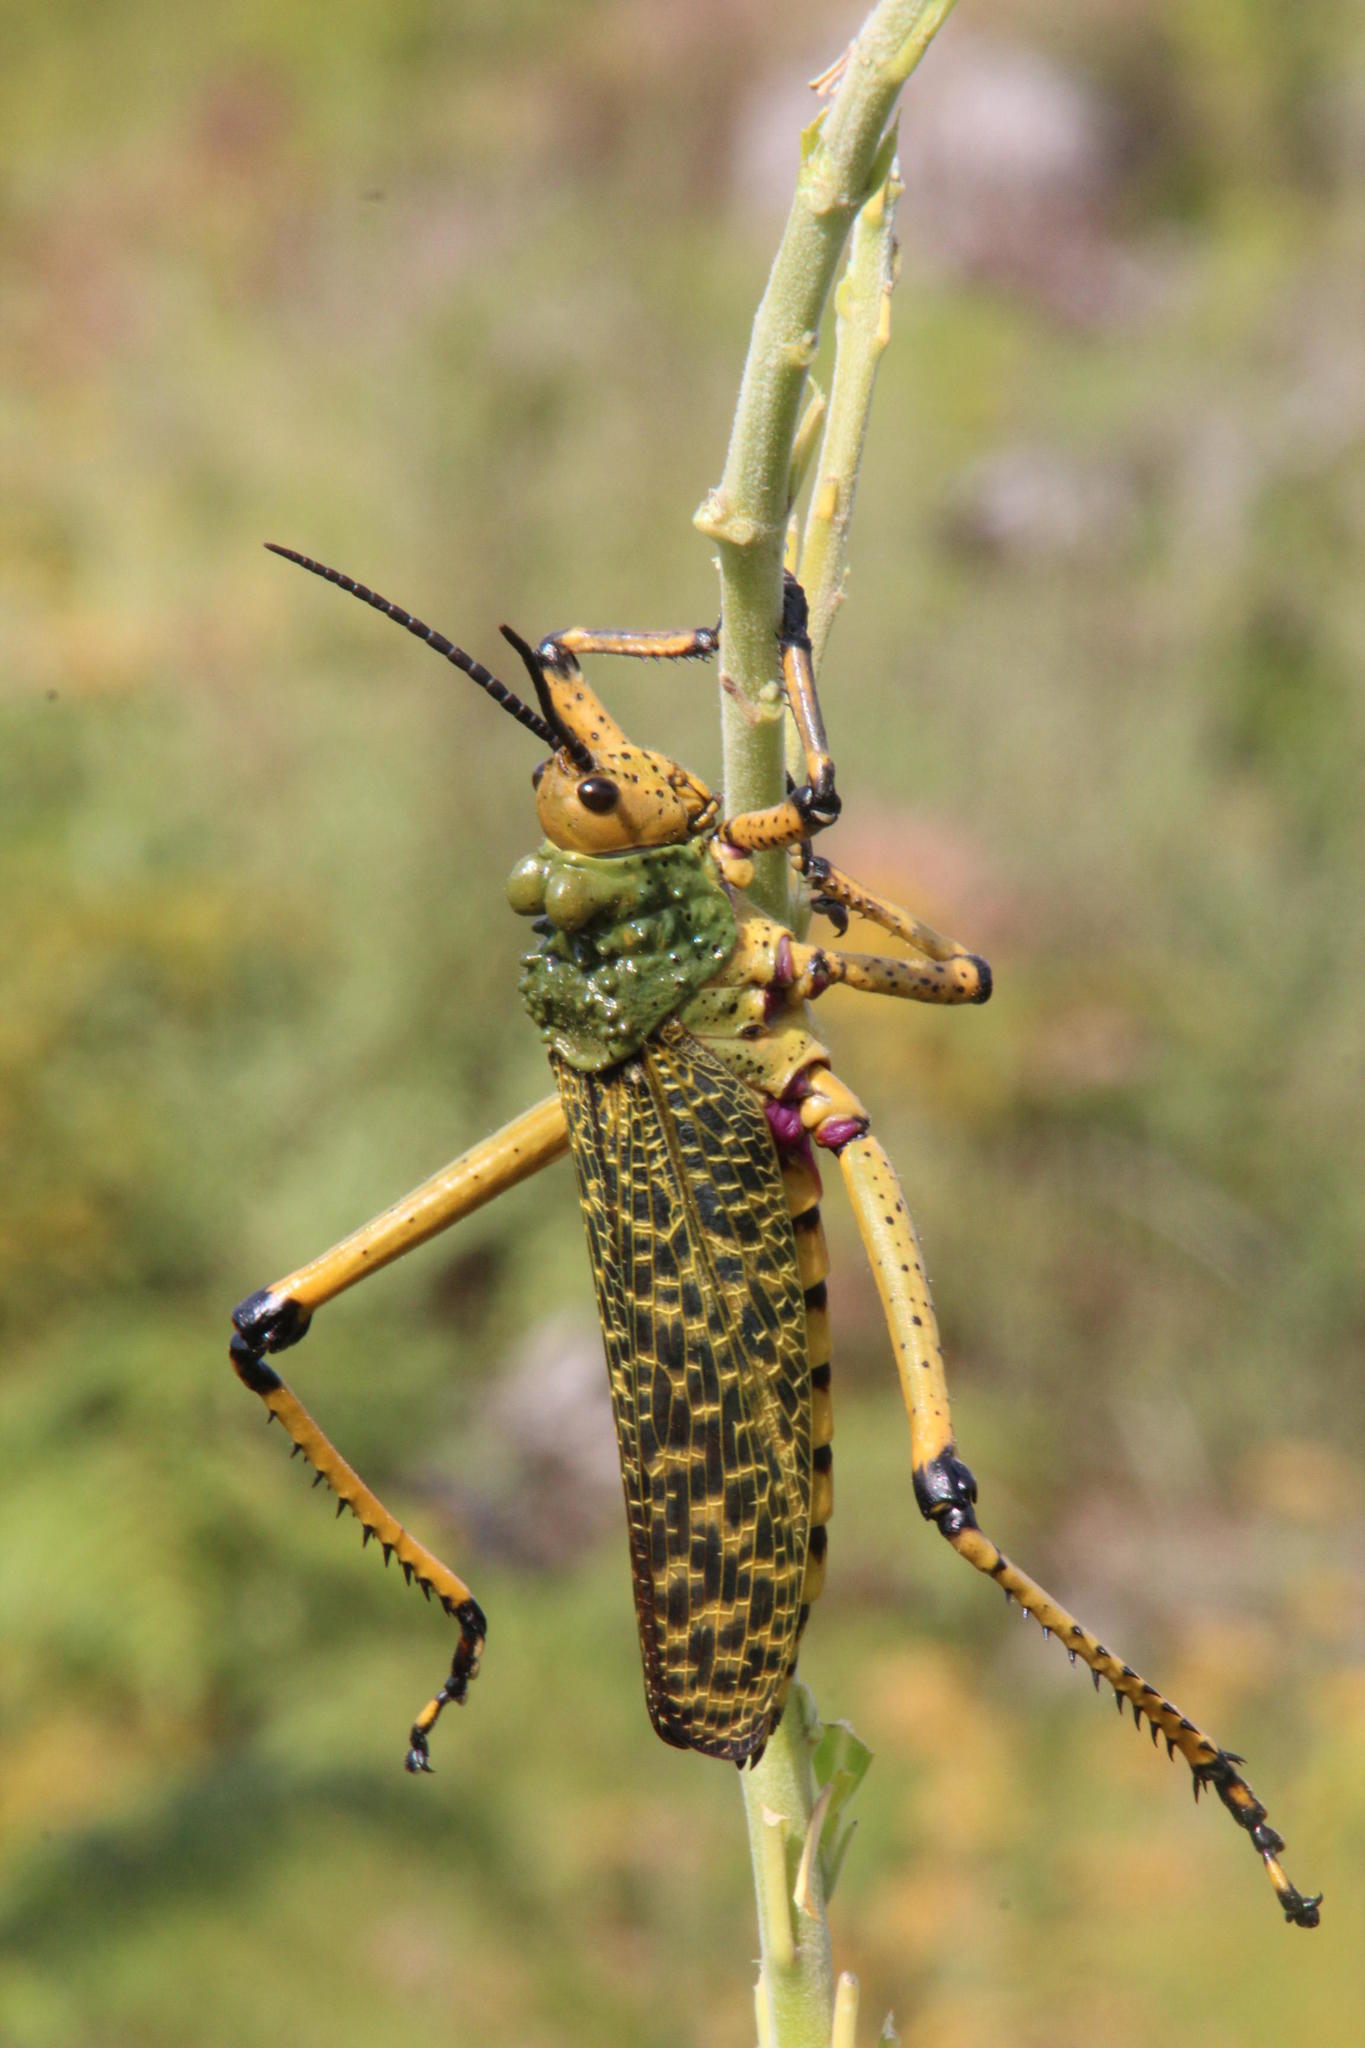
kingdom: Animalia
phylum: Arthropoda
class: Insecta
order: Orthoptera
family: Pyrgomorphidae
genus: Phymateus
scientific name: Phymateus leprosus
